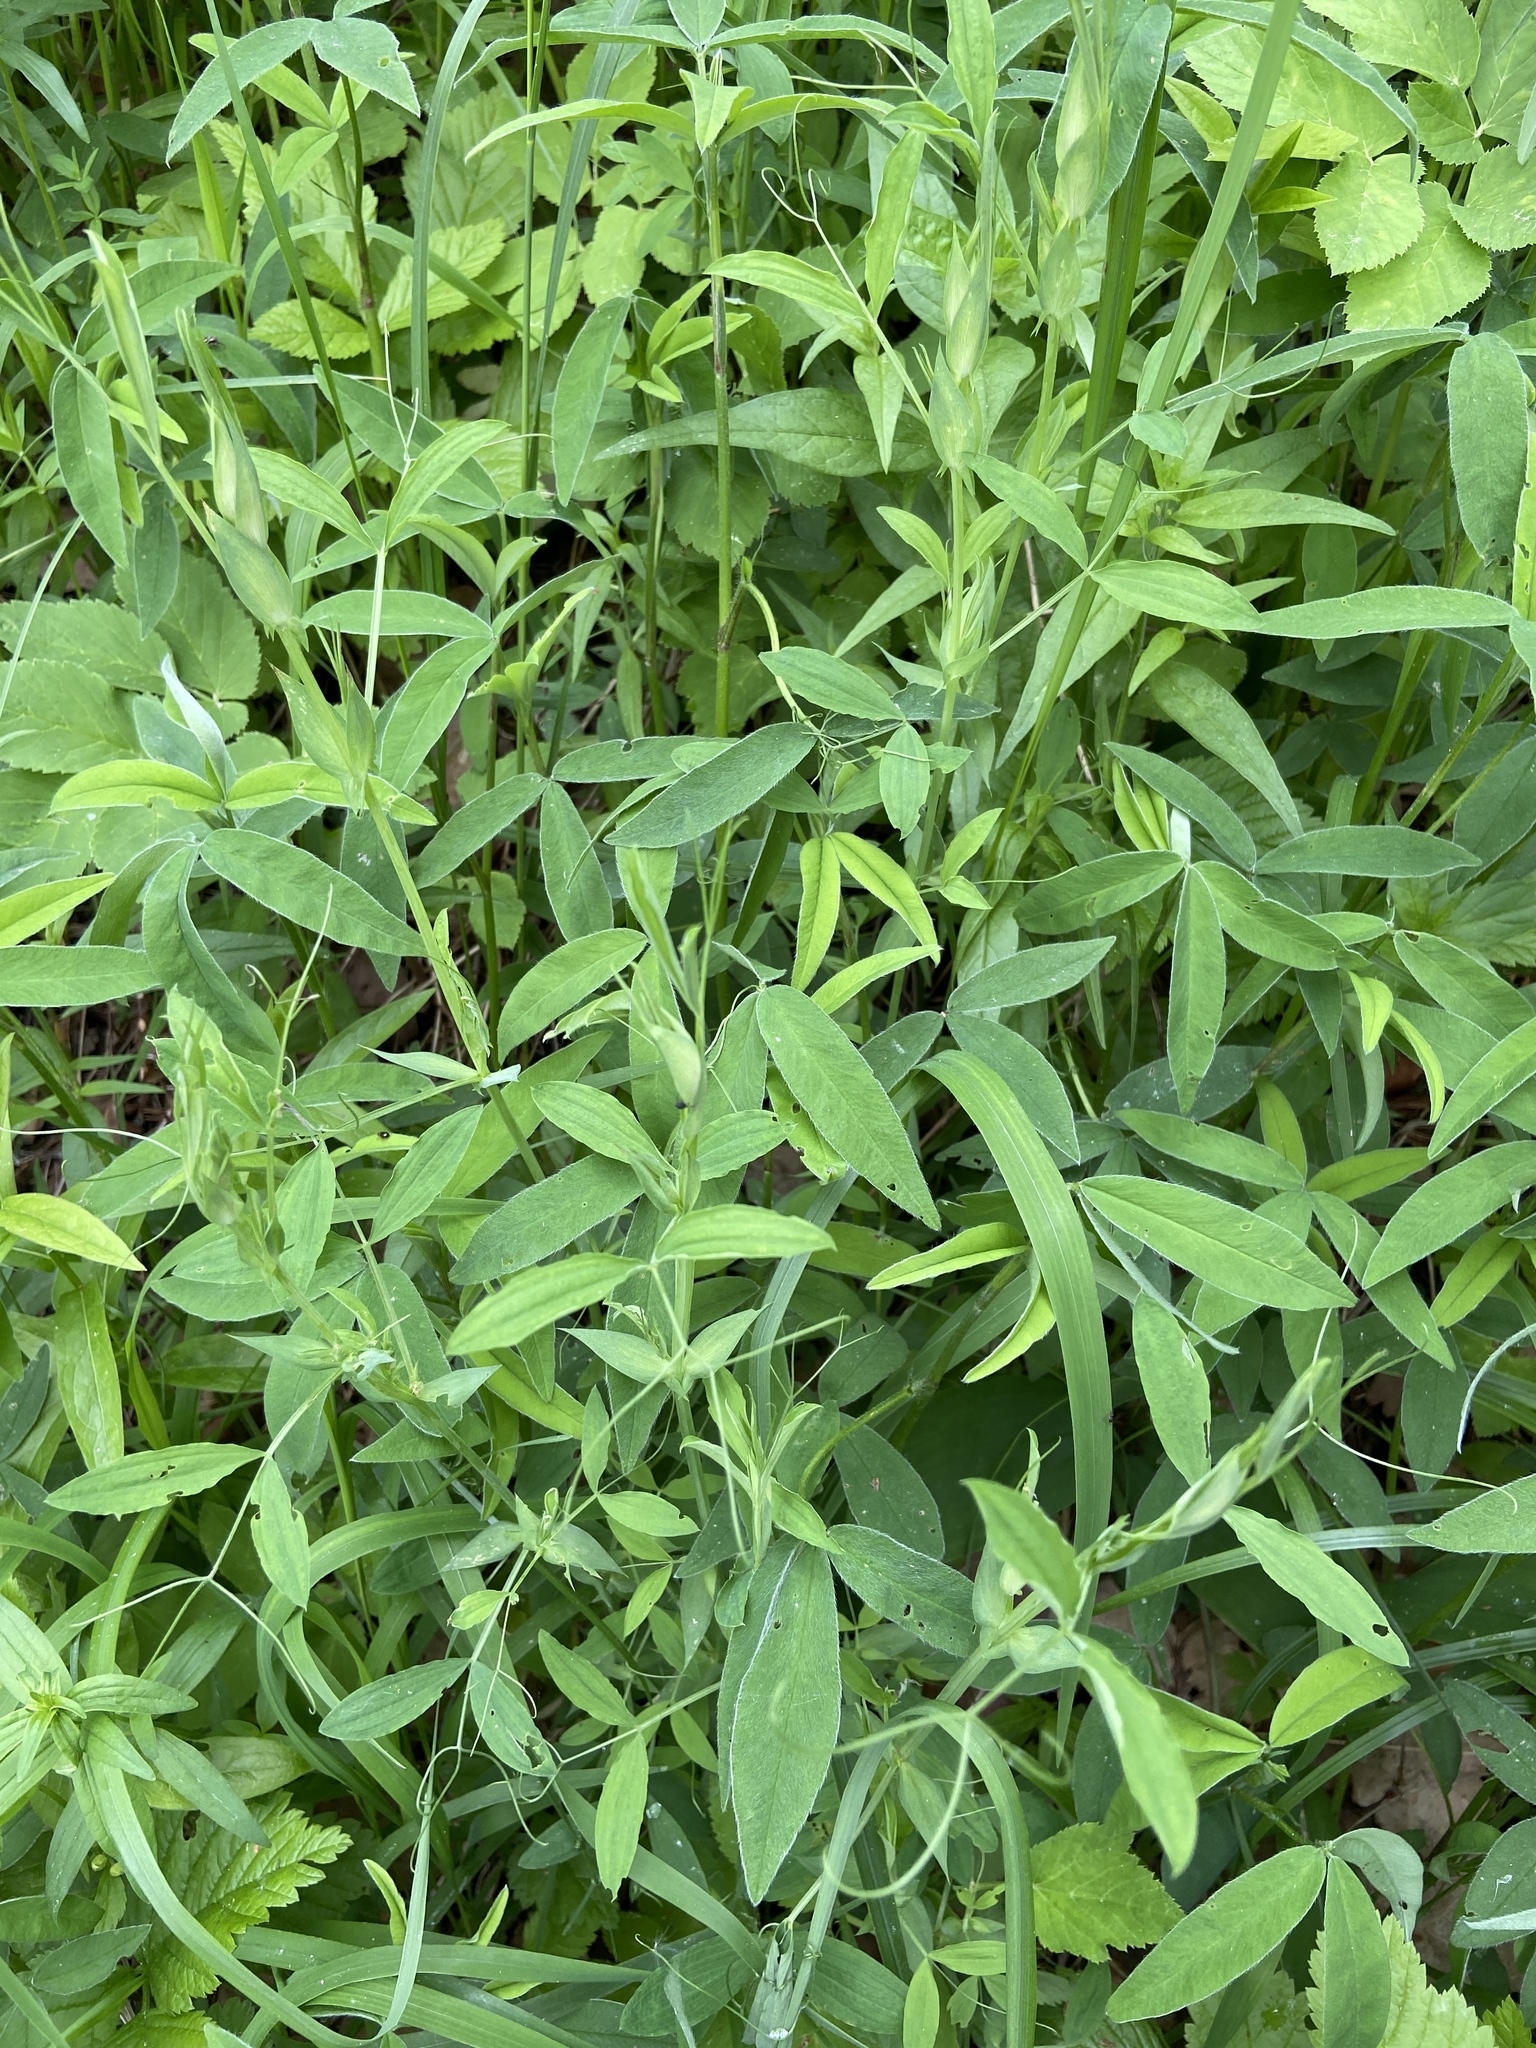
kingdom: Plantae
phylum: Tracheophyta
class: Magnoliopsida
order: Fabales
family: Fabaceae
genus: Lathyrus
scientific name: Lathyrus pratensis
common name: Meadow vetchling
